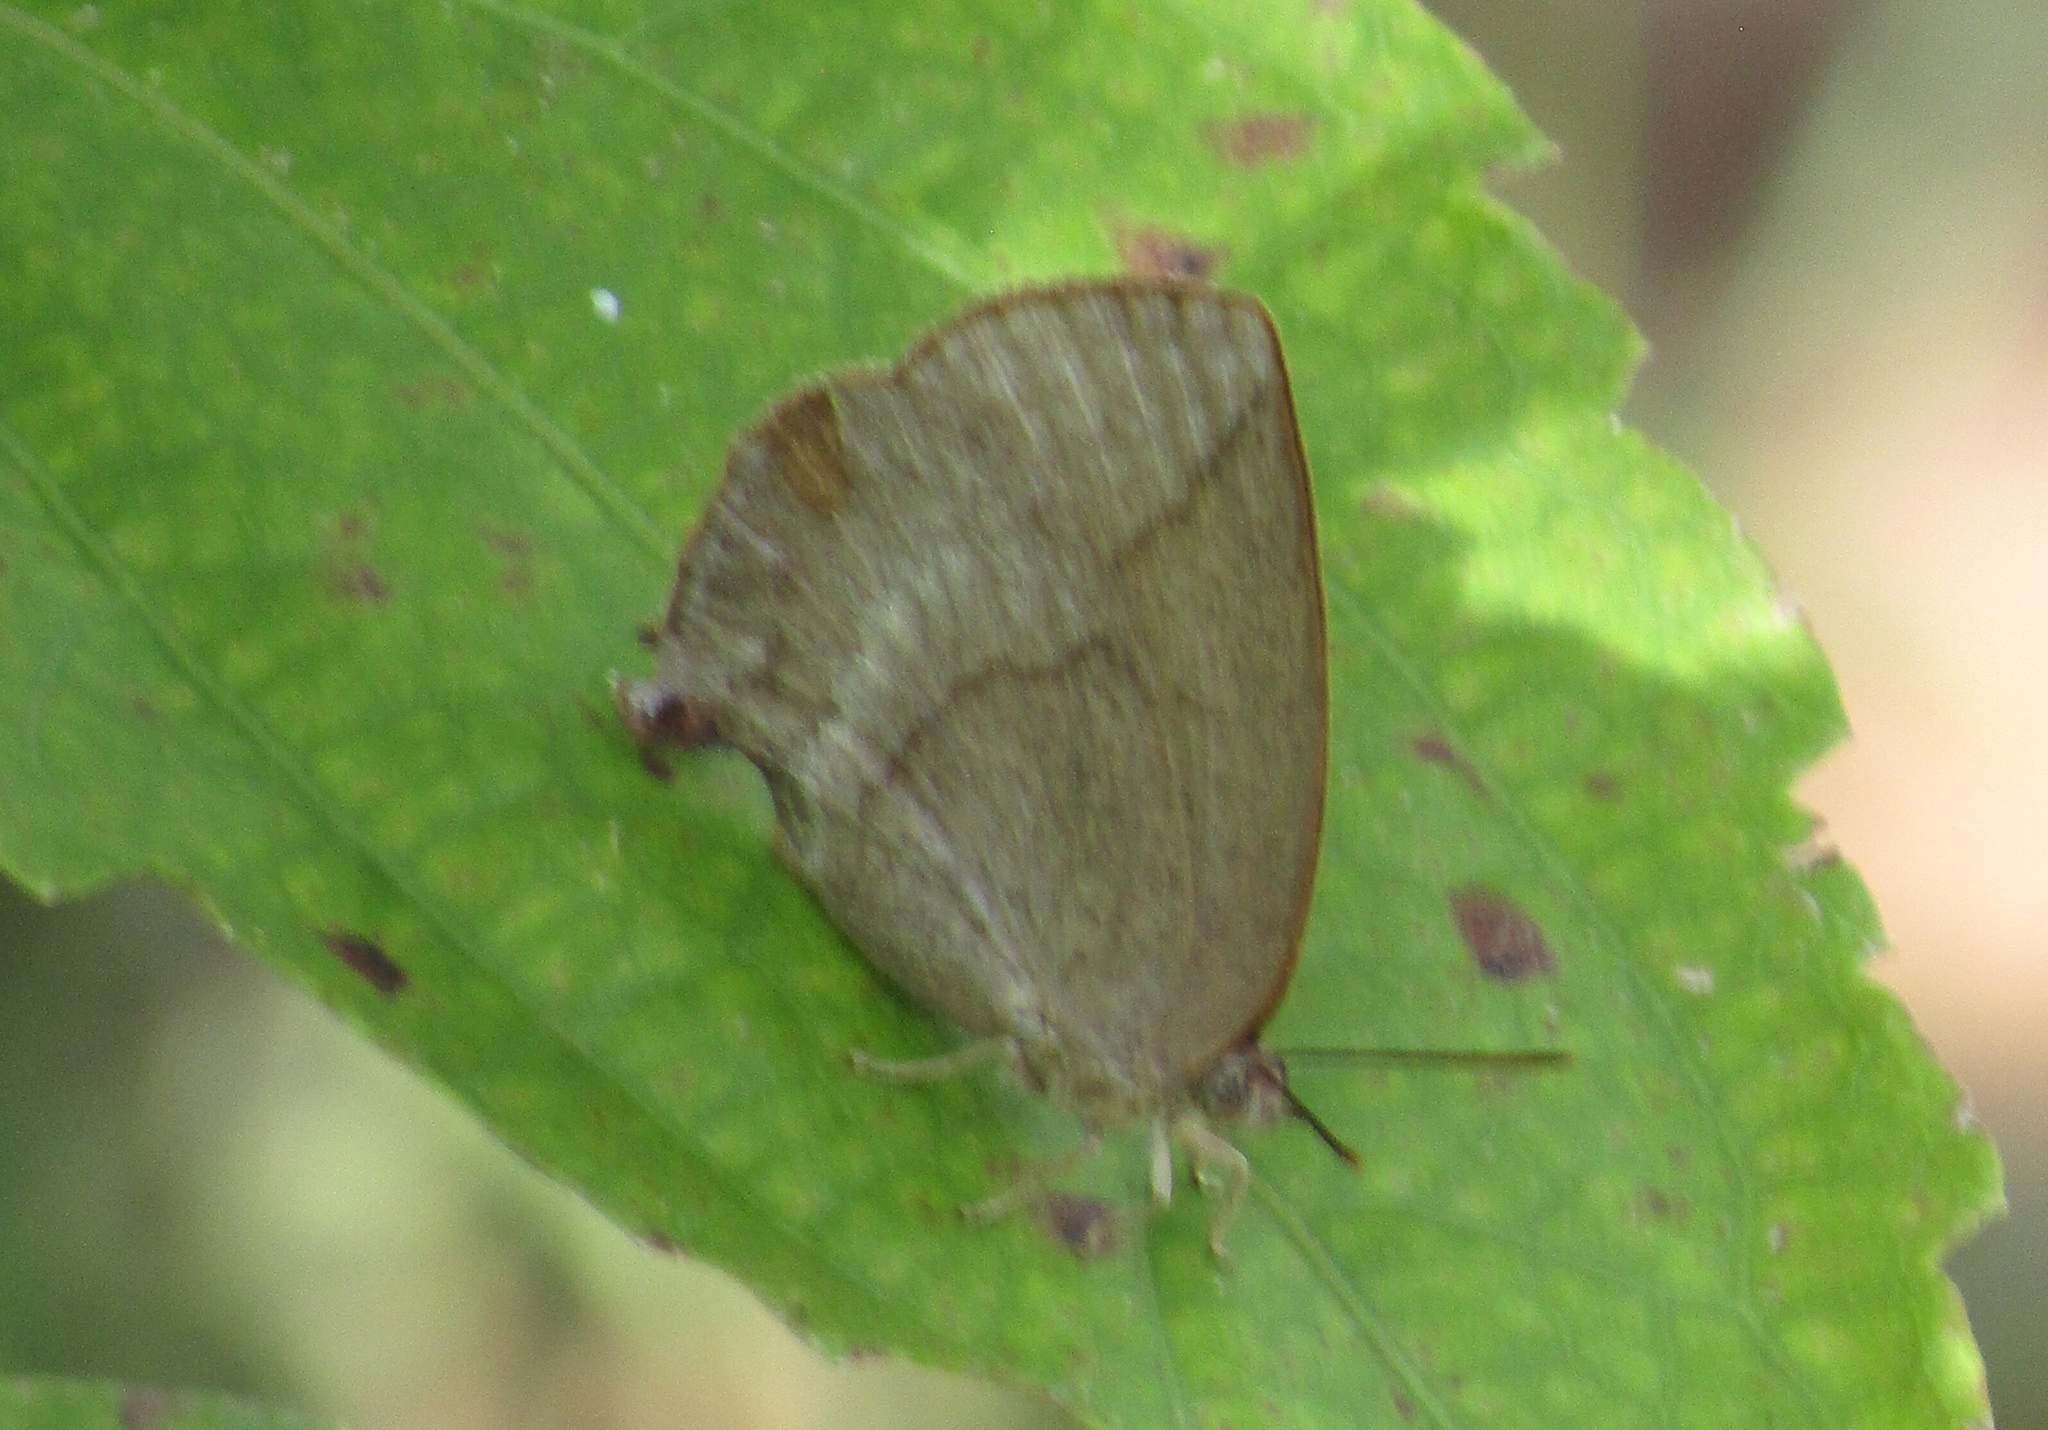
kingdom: Animalia
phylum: Arthropoda
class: Insecta
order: Lepidoptera
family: Lycaenidae
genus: Amblypodia
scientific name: Amblypodia anita
